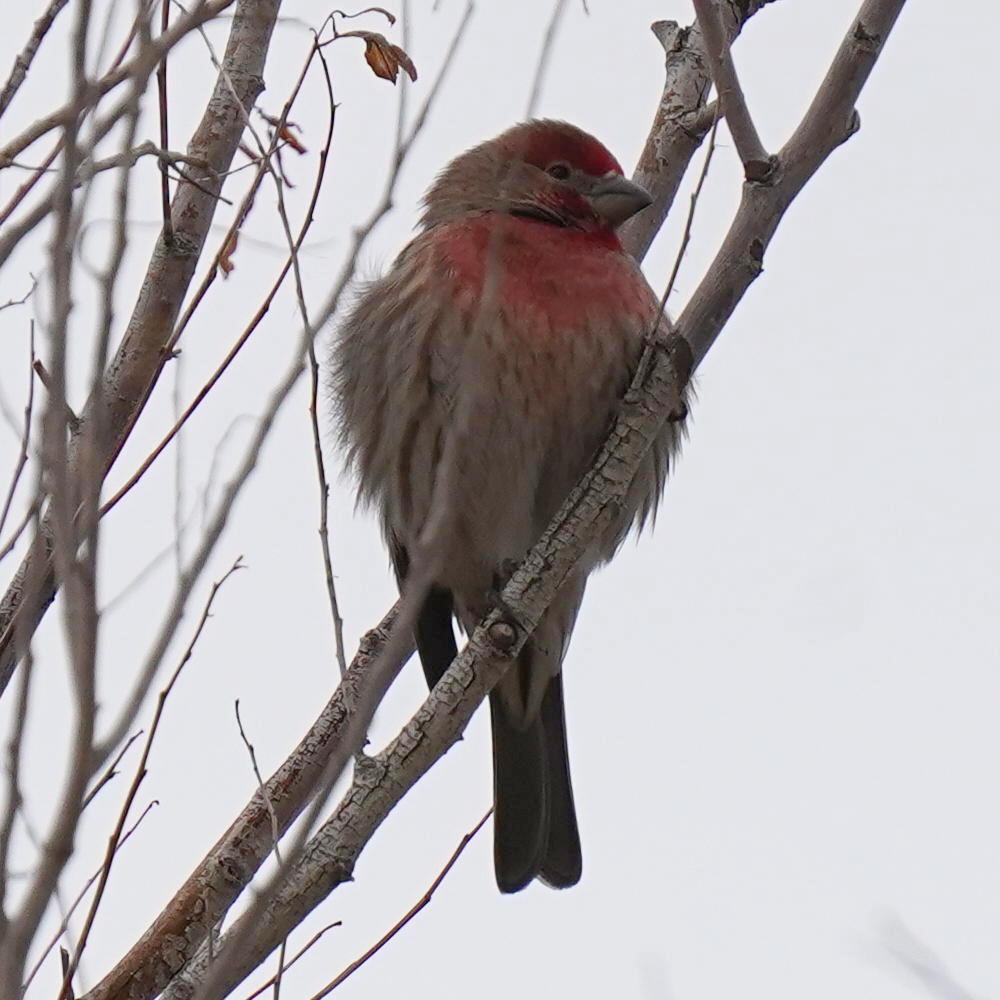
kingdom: Animalia
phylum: Chordata
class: Aves
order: Passeriformes
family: Fringillidae
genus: Haemorhous
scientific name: Haemorhous mexicanus
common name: House finch
